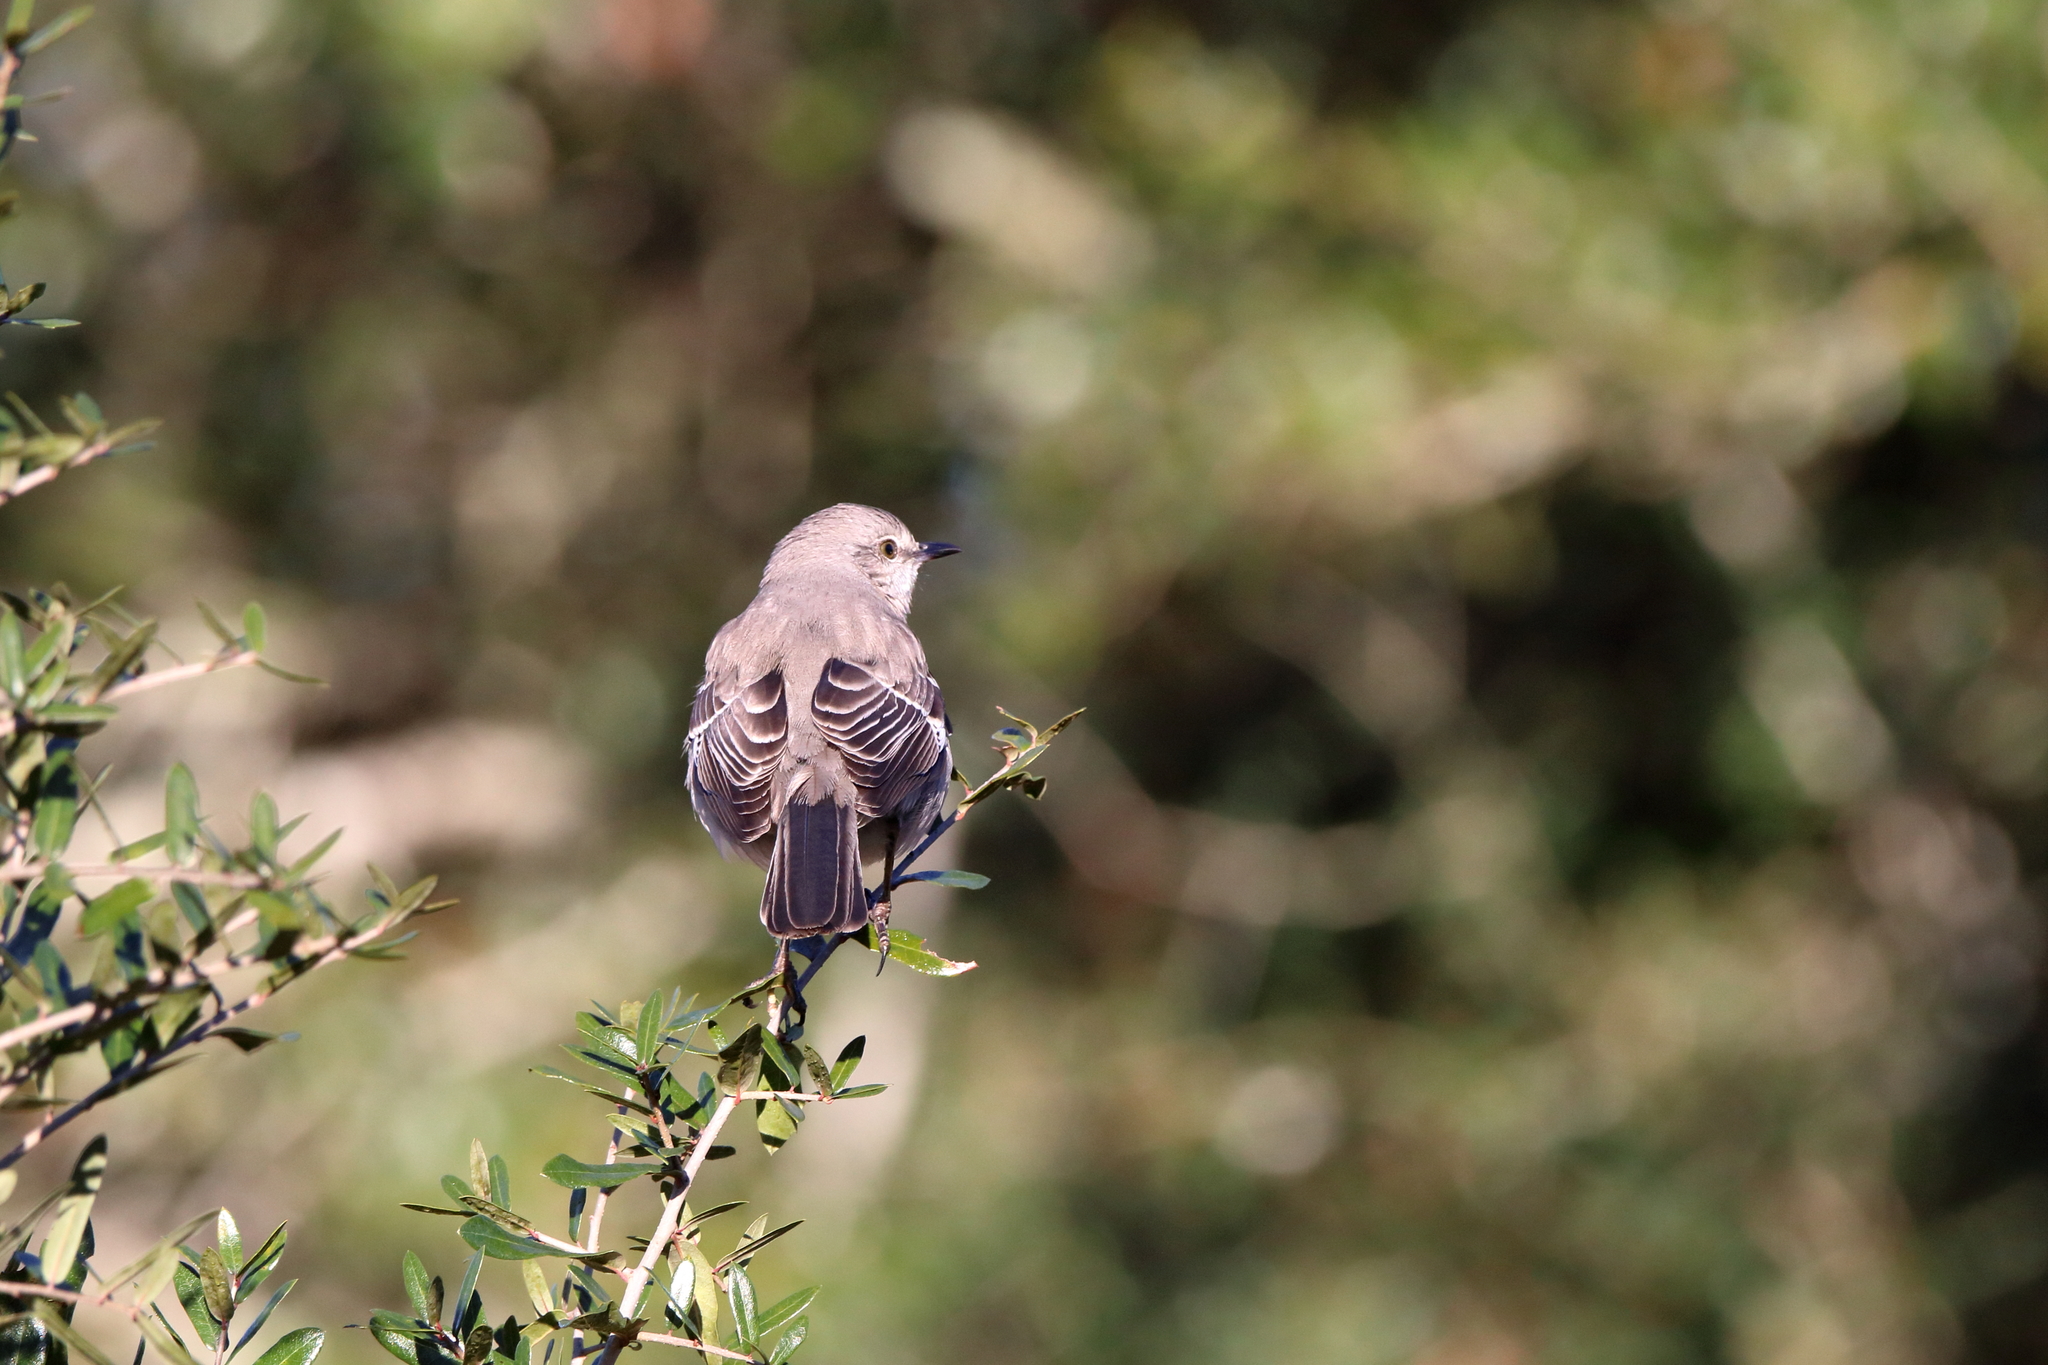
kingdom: Animalia
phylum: Chordata
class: Aves
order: Passeriformes
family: Mimidae
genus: Mimus
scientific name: Mimus polyglottos
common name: Northern mockingbird
